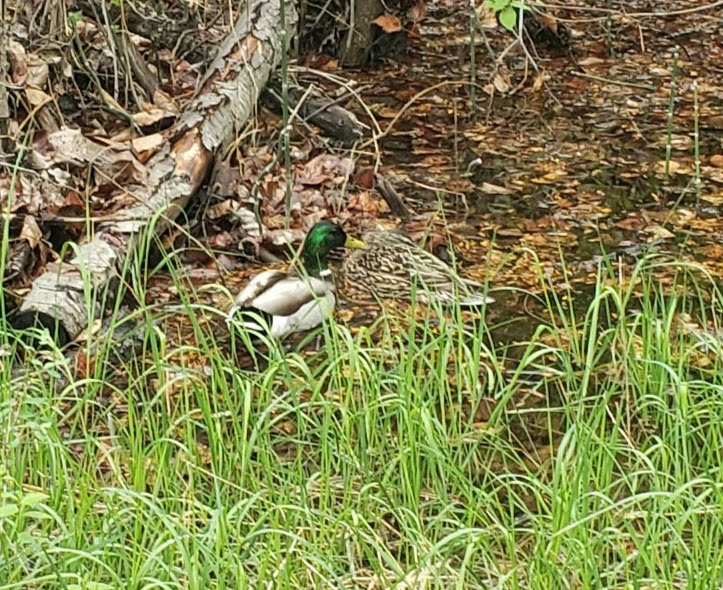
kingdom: Animalia
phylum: Chordata
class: Aves
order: Anseriformes
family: Anatidae
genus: Anas
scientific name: Anas platyrhynchos
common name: Mallard
